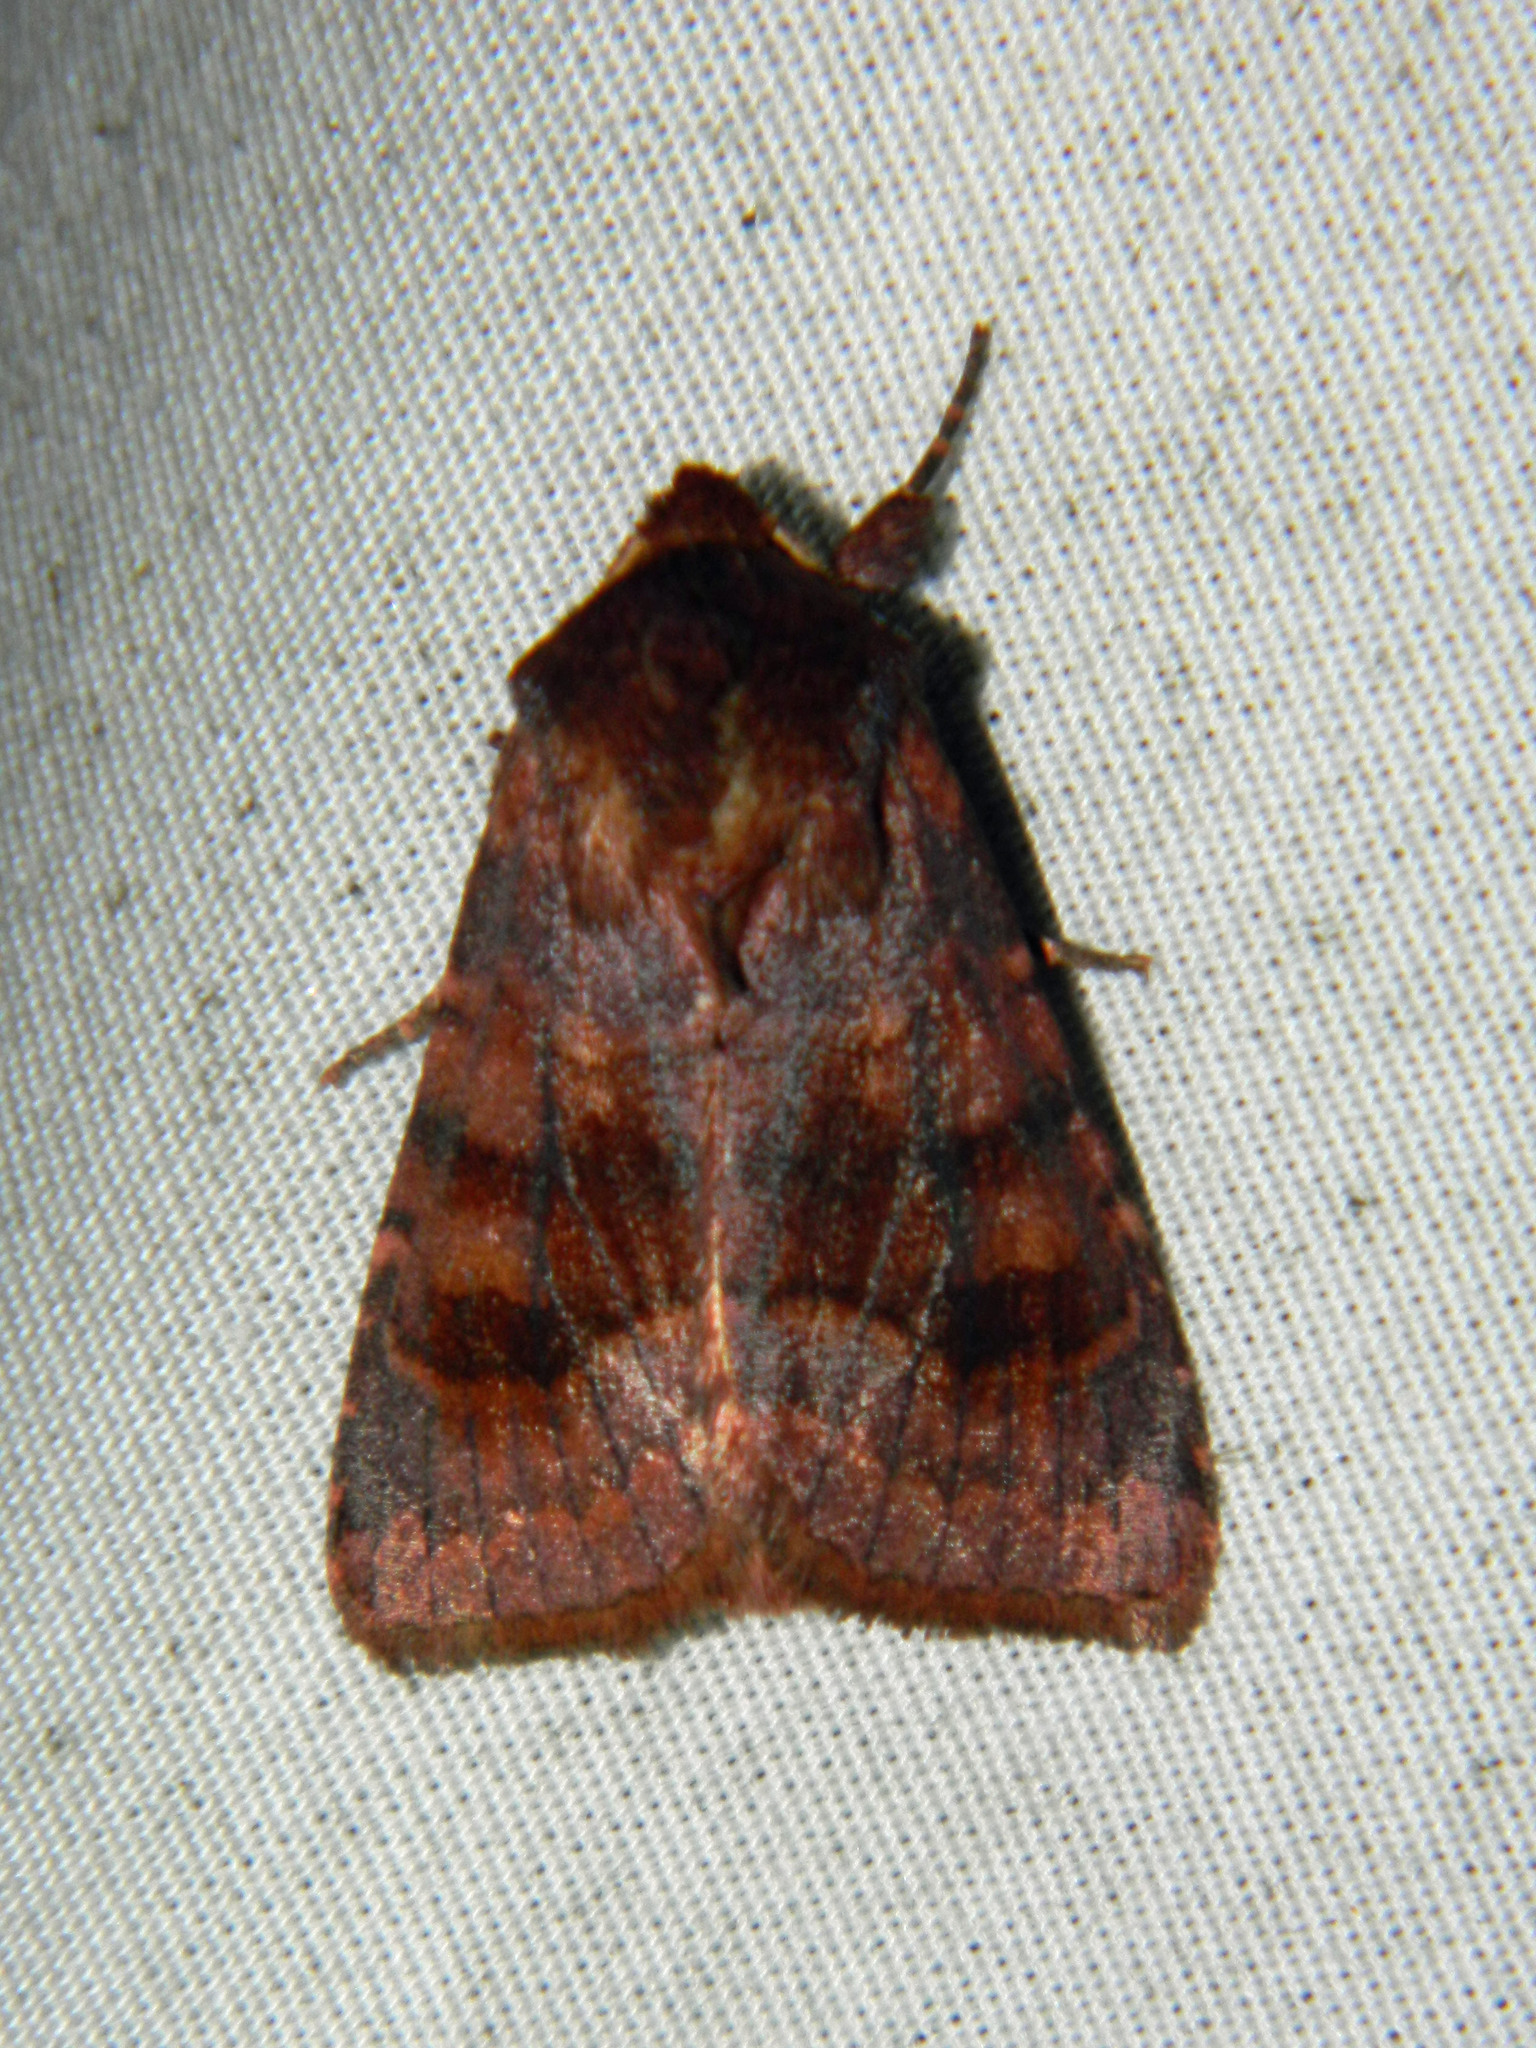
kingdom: Animalia
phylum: Arthropoda
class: Insecta
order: Lepidoptera
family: Noctuidae
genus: Nephelodes
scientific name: Nephelodes minians
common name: Bronzed cutworm
